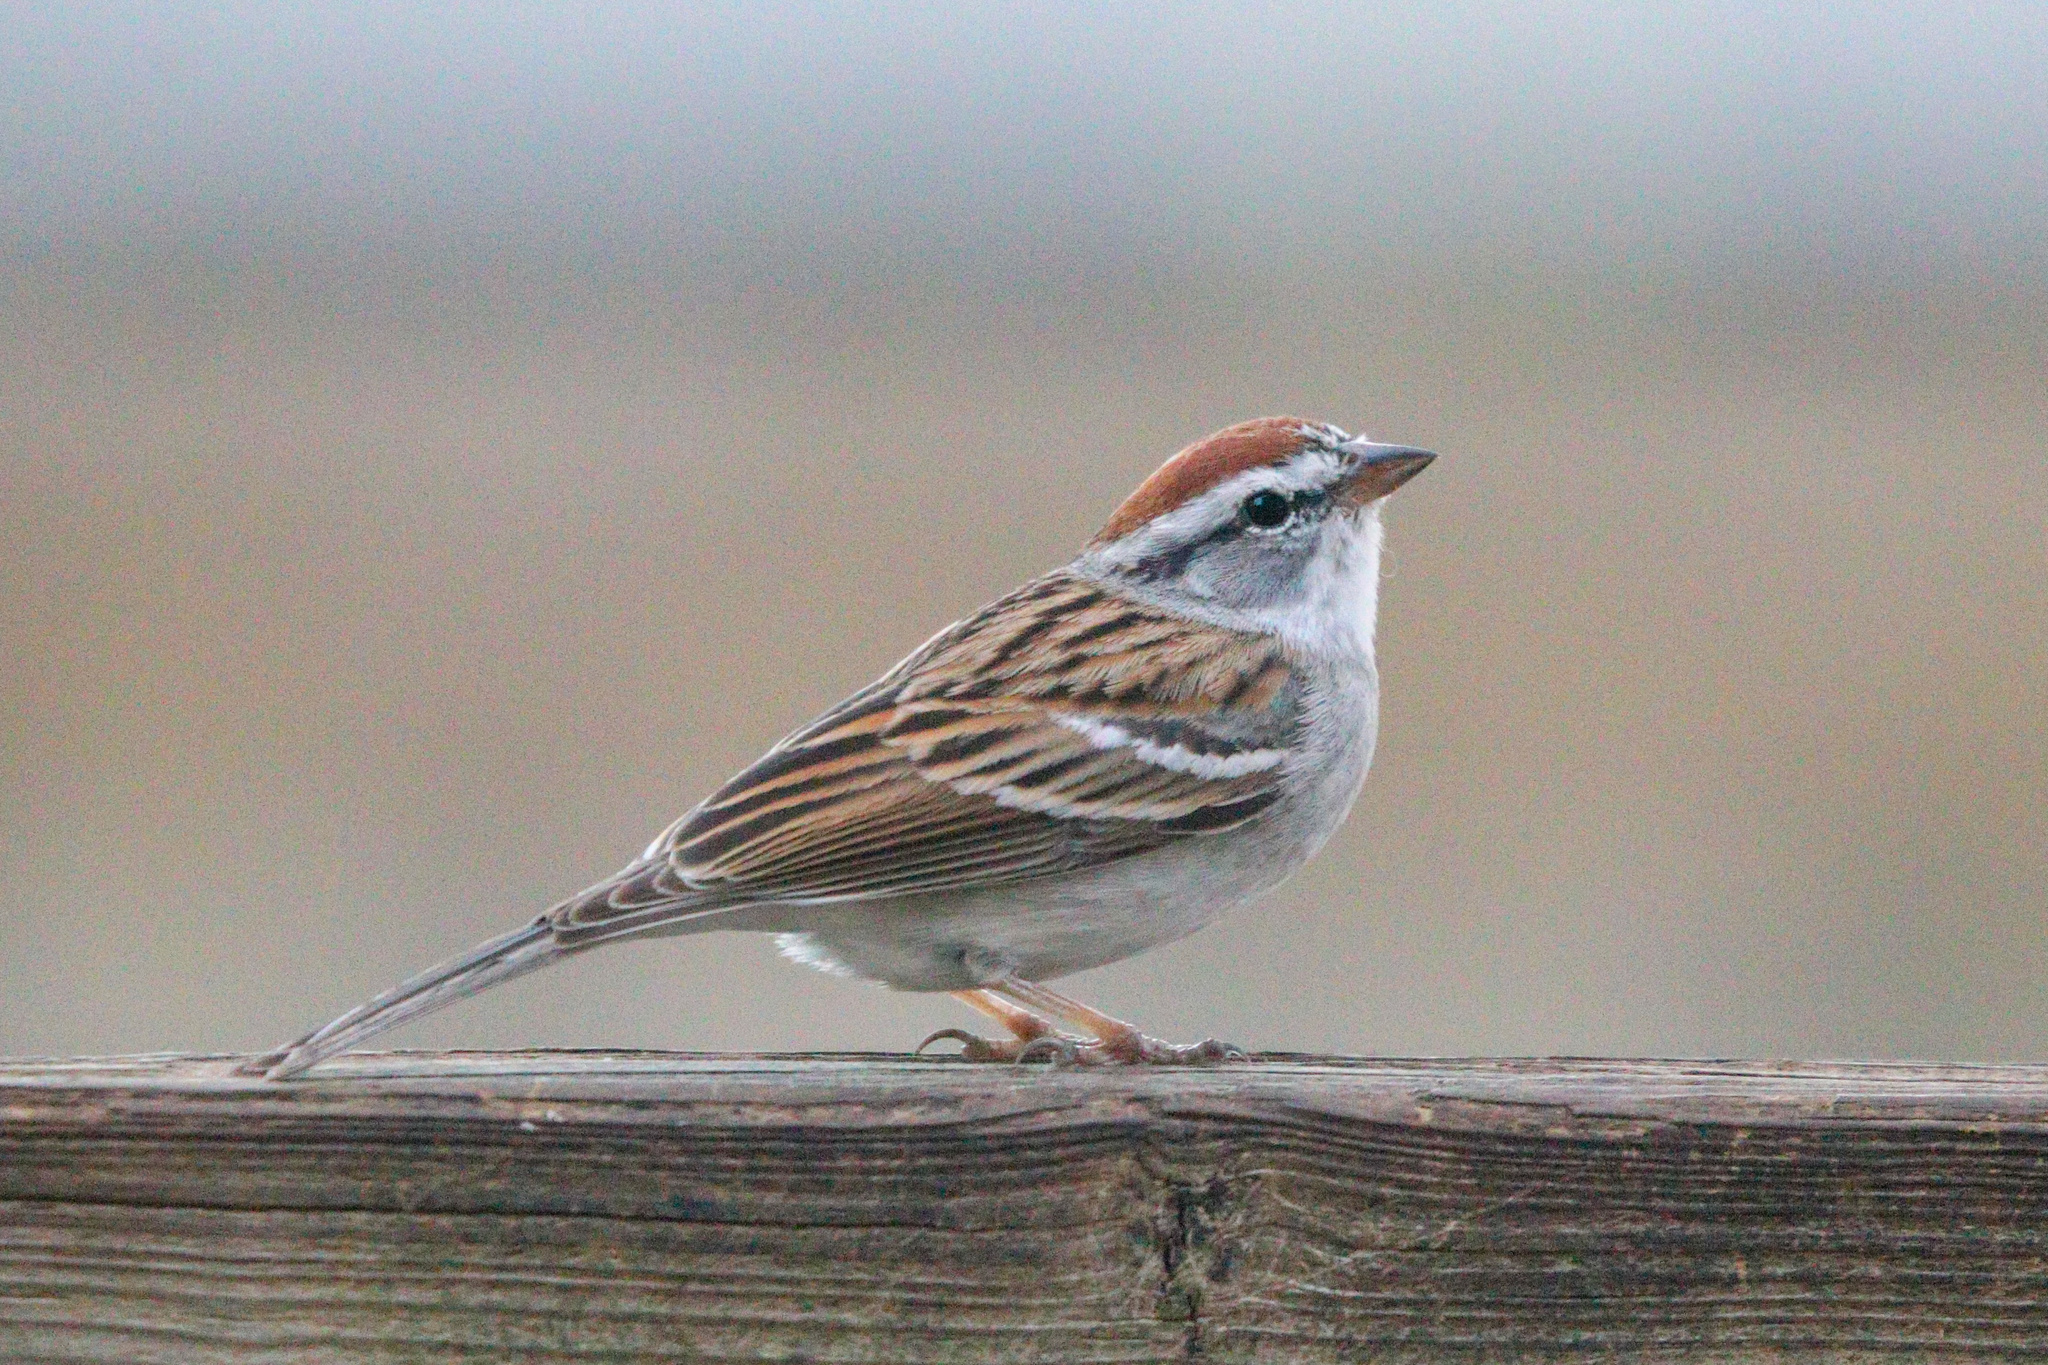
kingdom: Animalia
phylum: Chordata
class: Aves
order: Passeriformes
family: Passerellidae
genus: Spizella
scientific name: Spizella passerina
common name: Chipping sparrow
